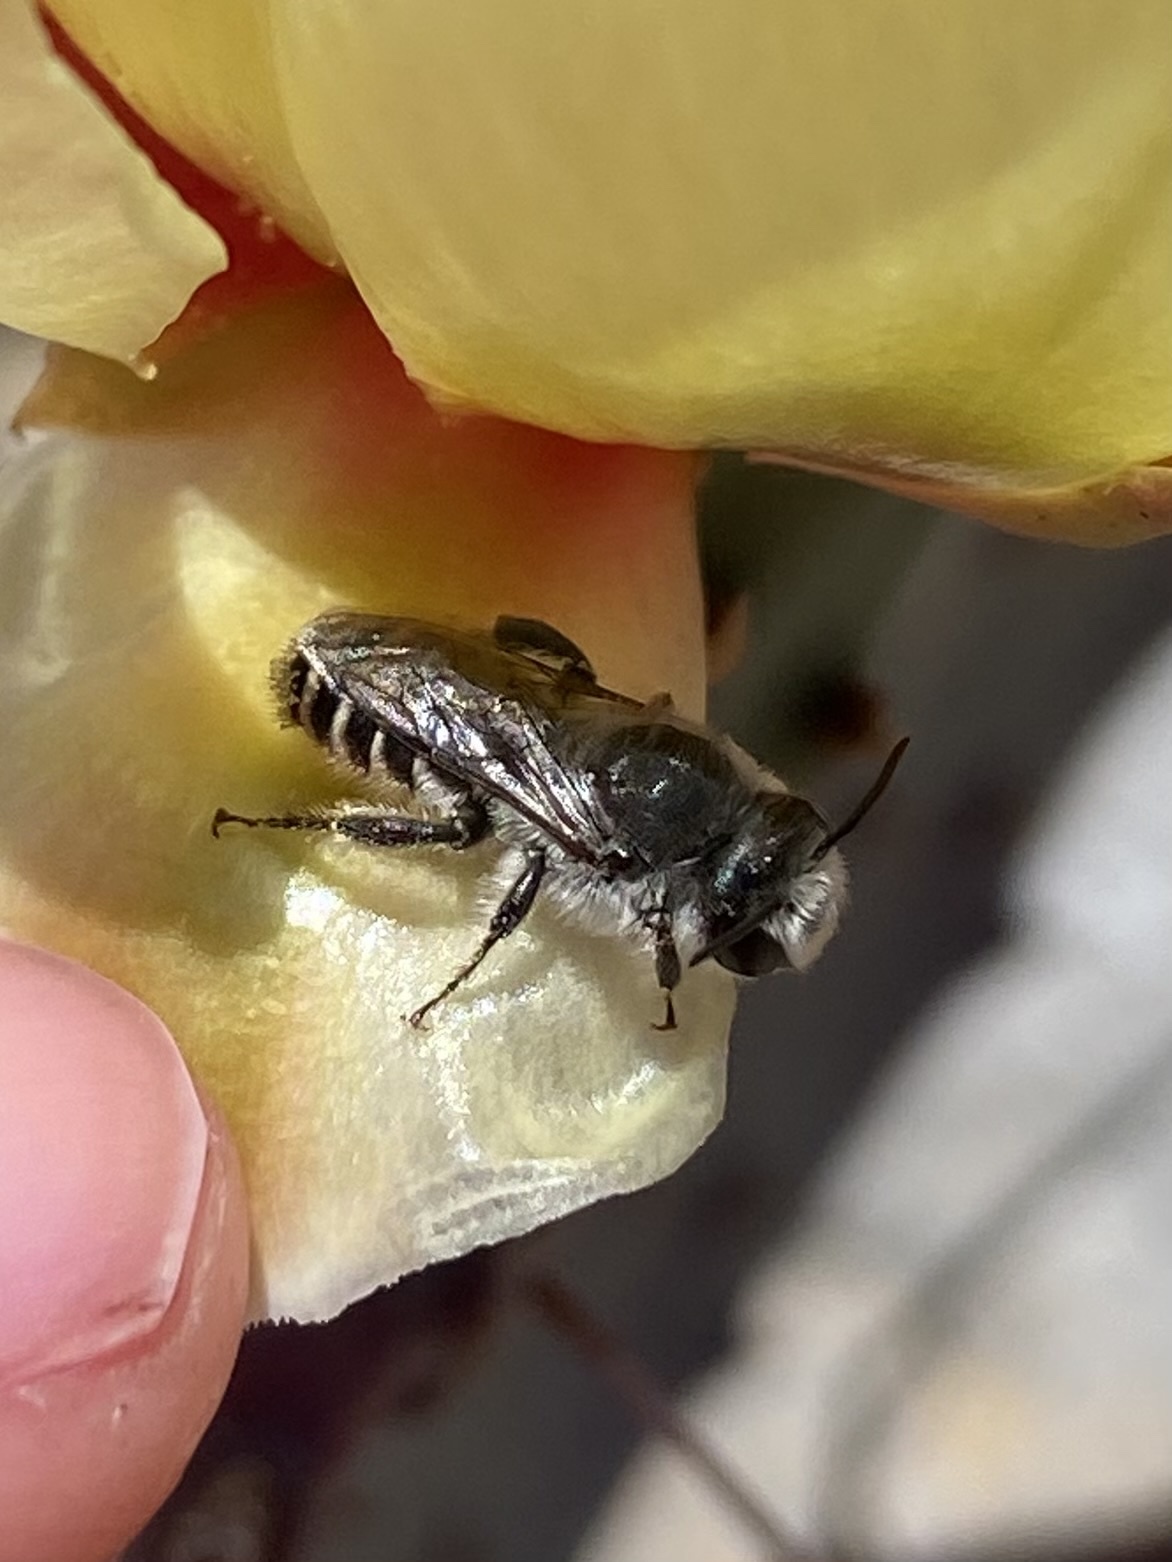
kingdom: Animalia
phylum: Arthropoda
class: Insecta
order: Hymenoptera
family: Megachilidae
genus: Lithurgopsis
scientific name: Lithurgopsis apicalis
